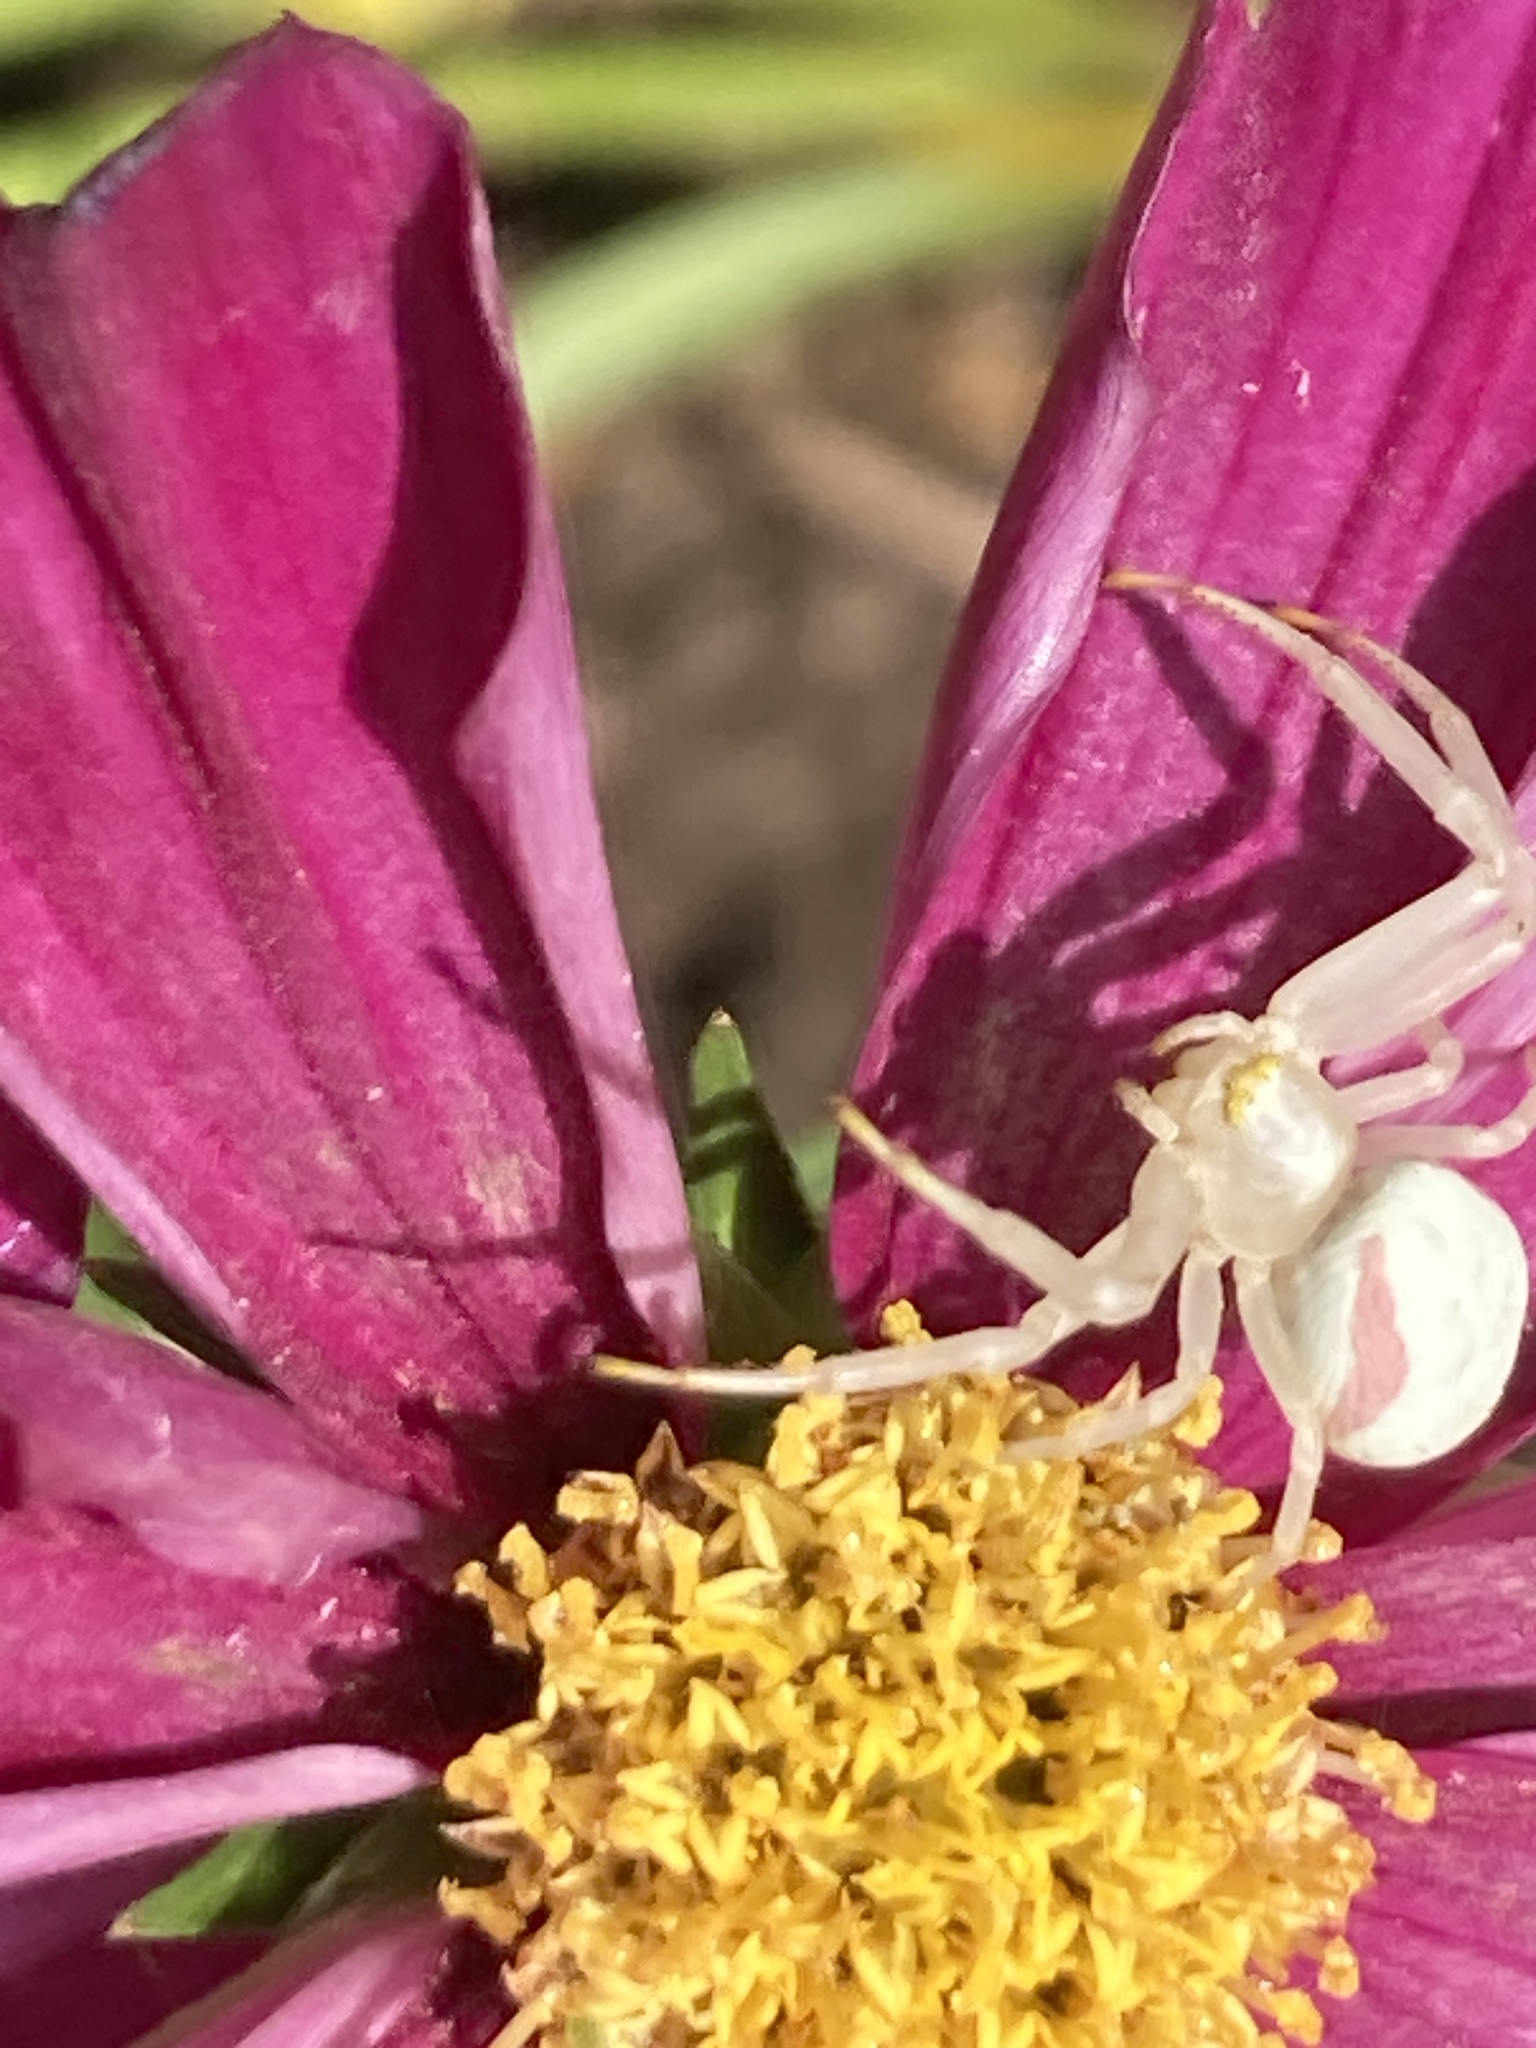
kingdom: Animalia
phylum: Arthropoda
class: Arachnida
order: Araneae
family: Thomisidae
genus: Misumena
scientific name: Misumena vatia
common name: Goldenrod crab spider
